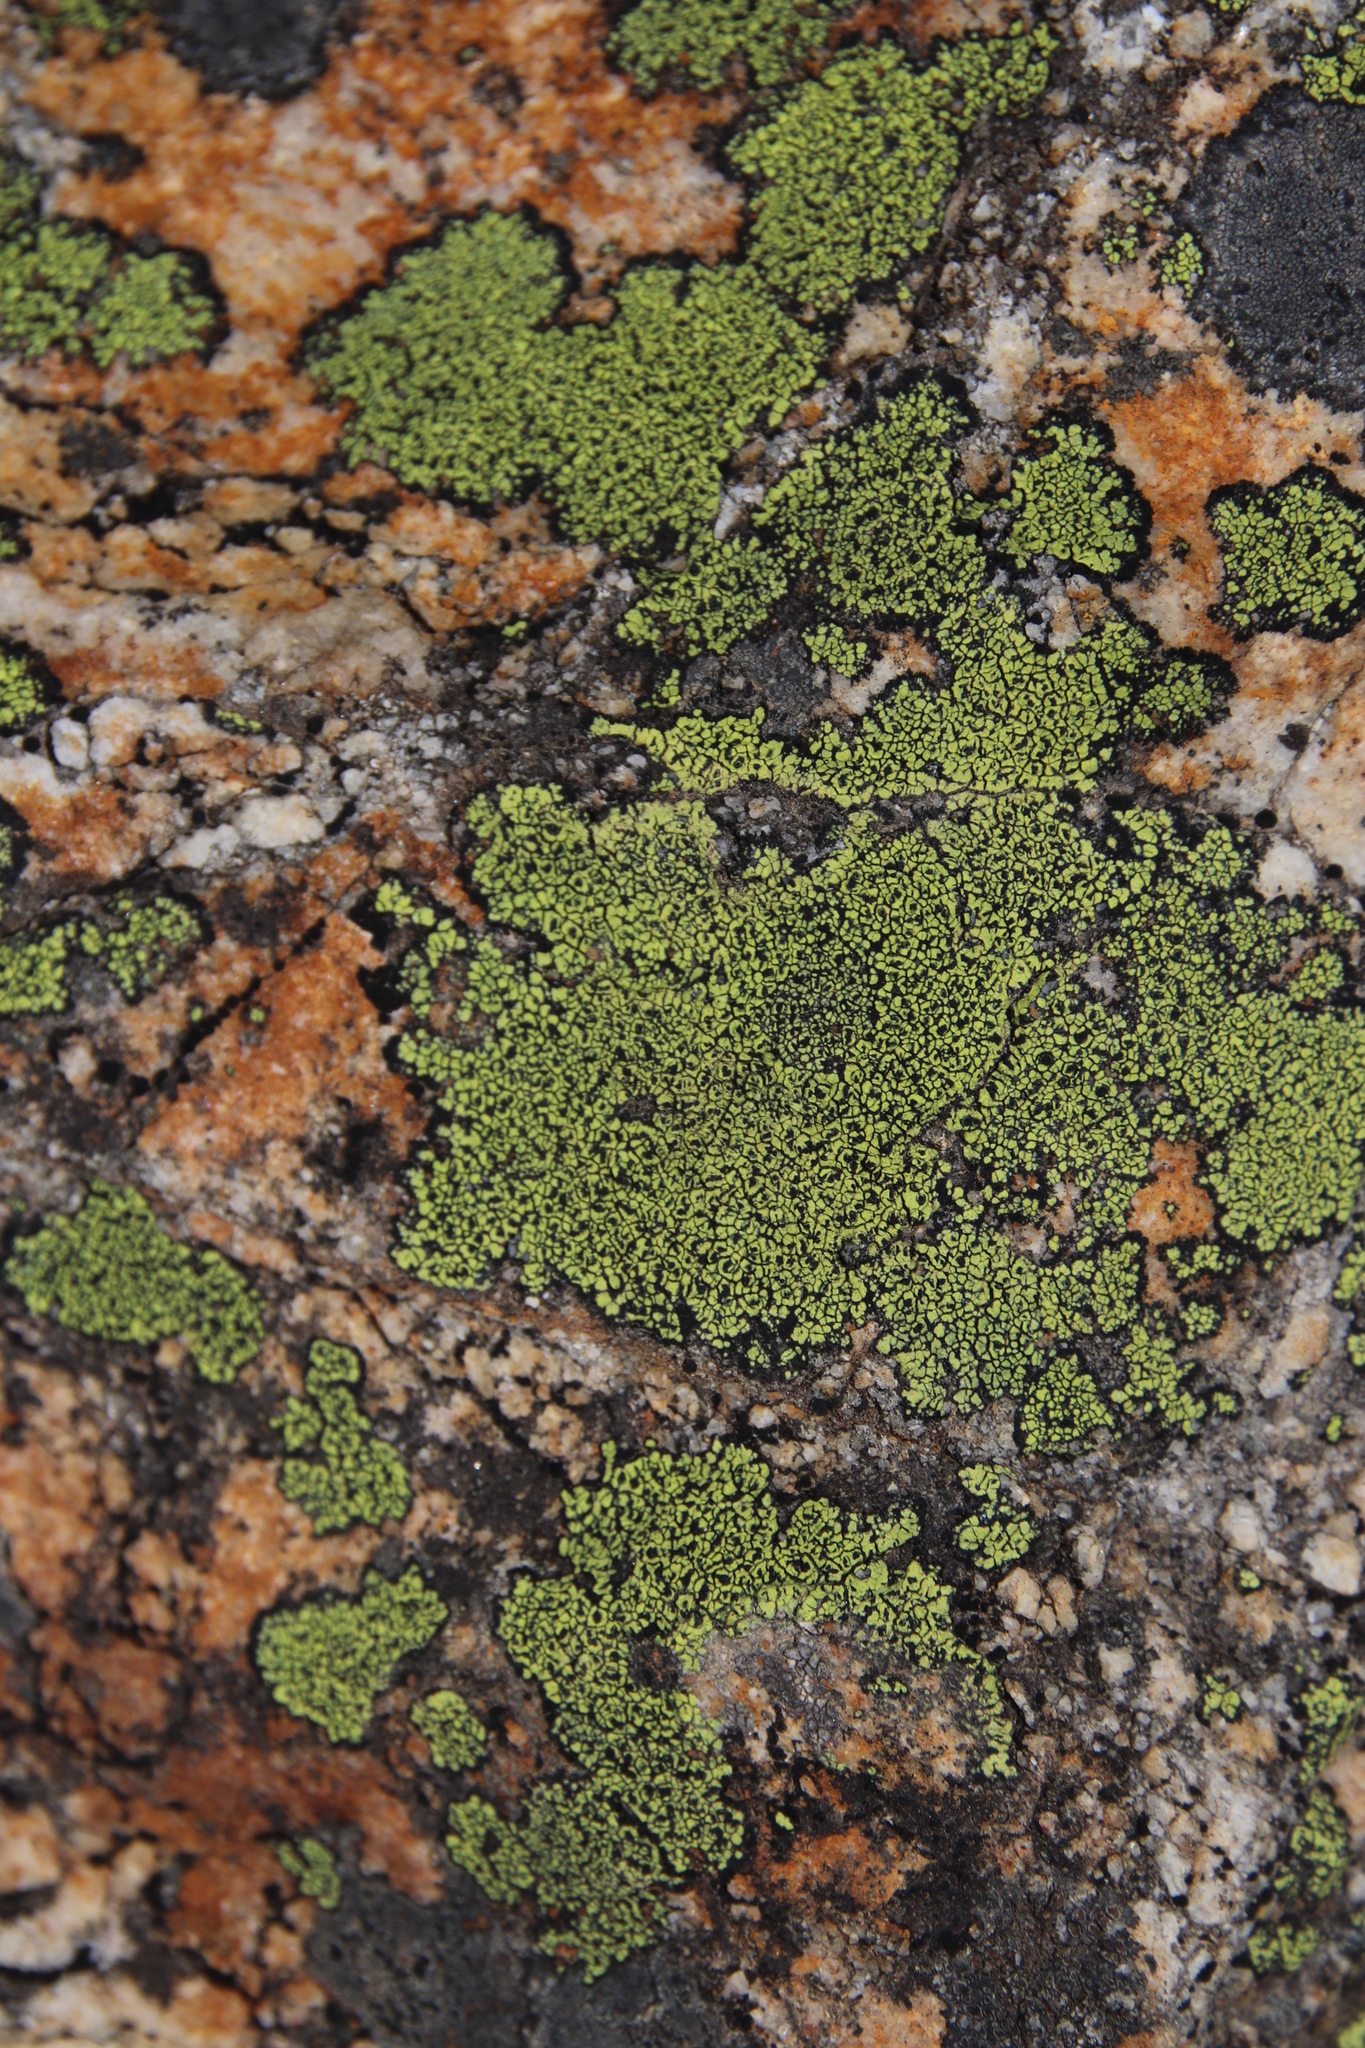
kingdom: Fungi
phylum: Ascomycota
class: Lecanoromycetes
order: Rhizocarpales
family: Rhizocarpaceae
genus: Rhizocarpon
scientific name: Rhizocarpon lecanorinum
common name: Crescent map lichen
